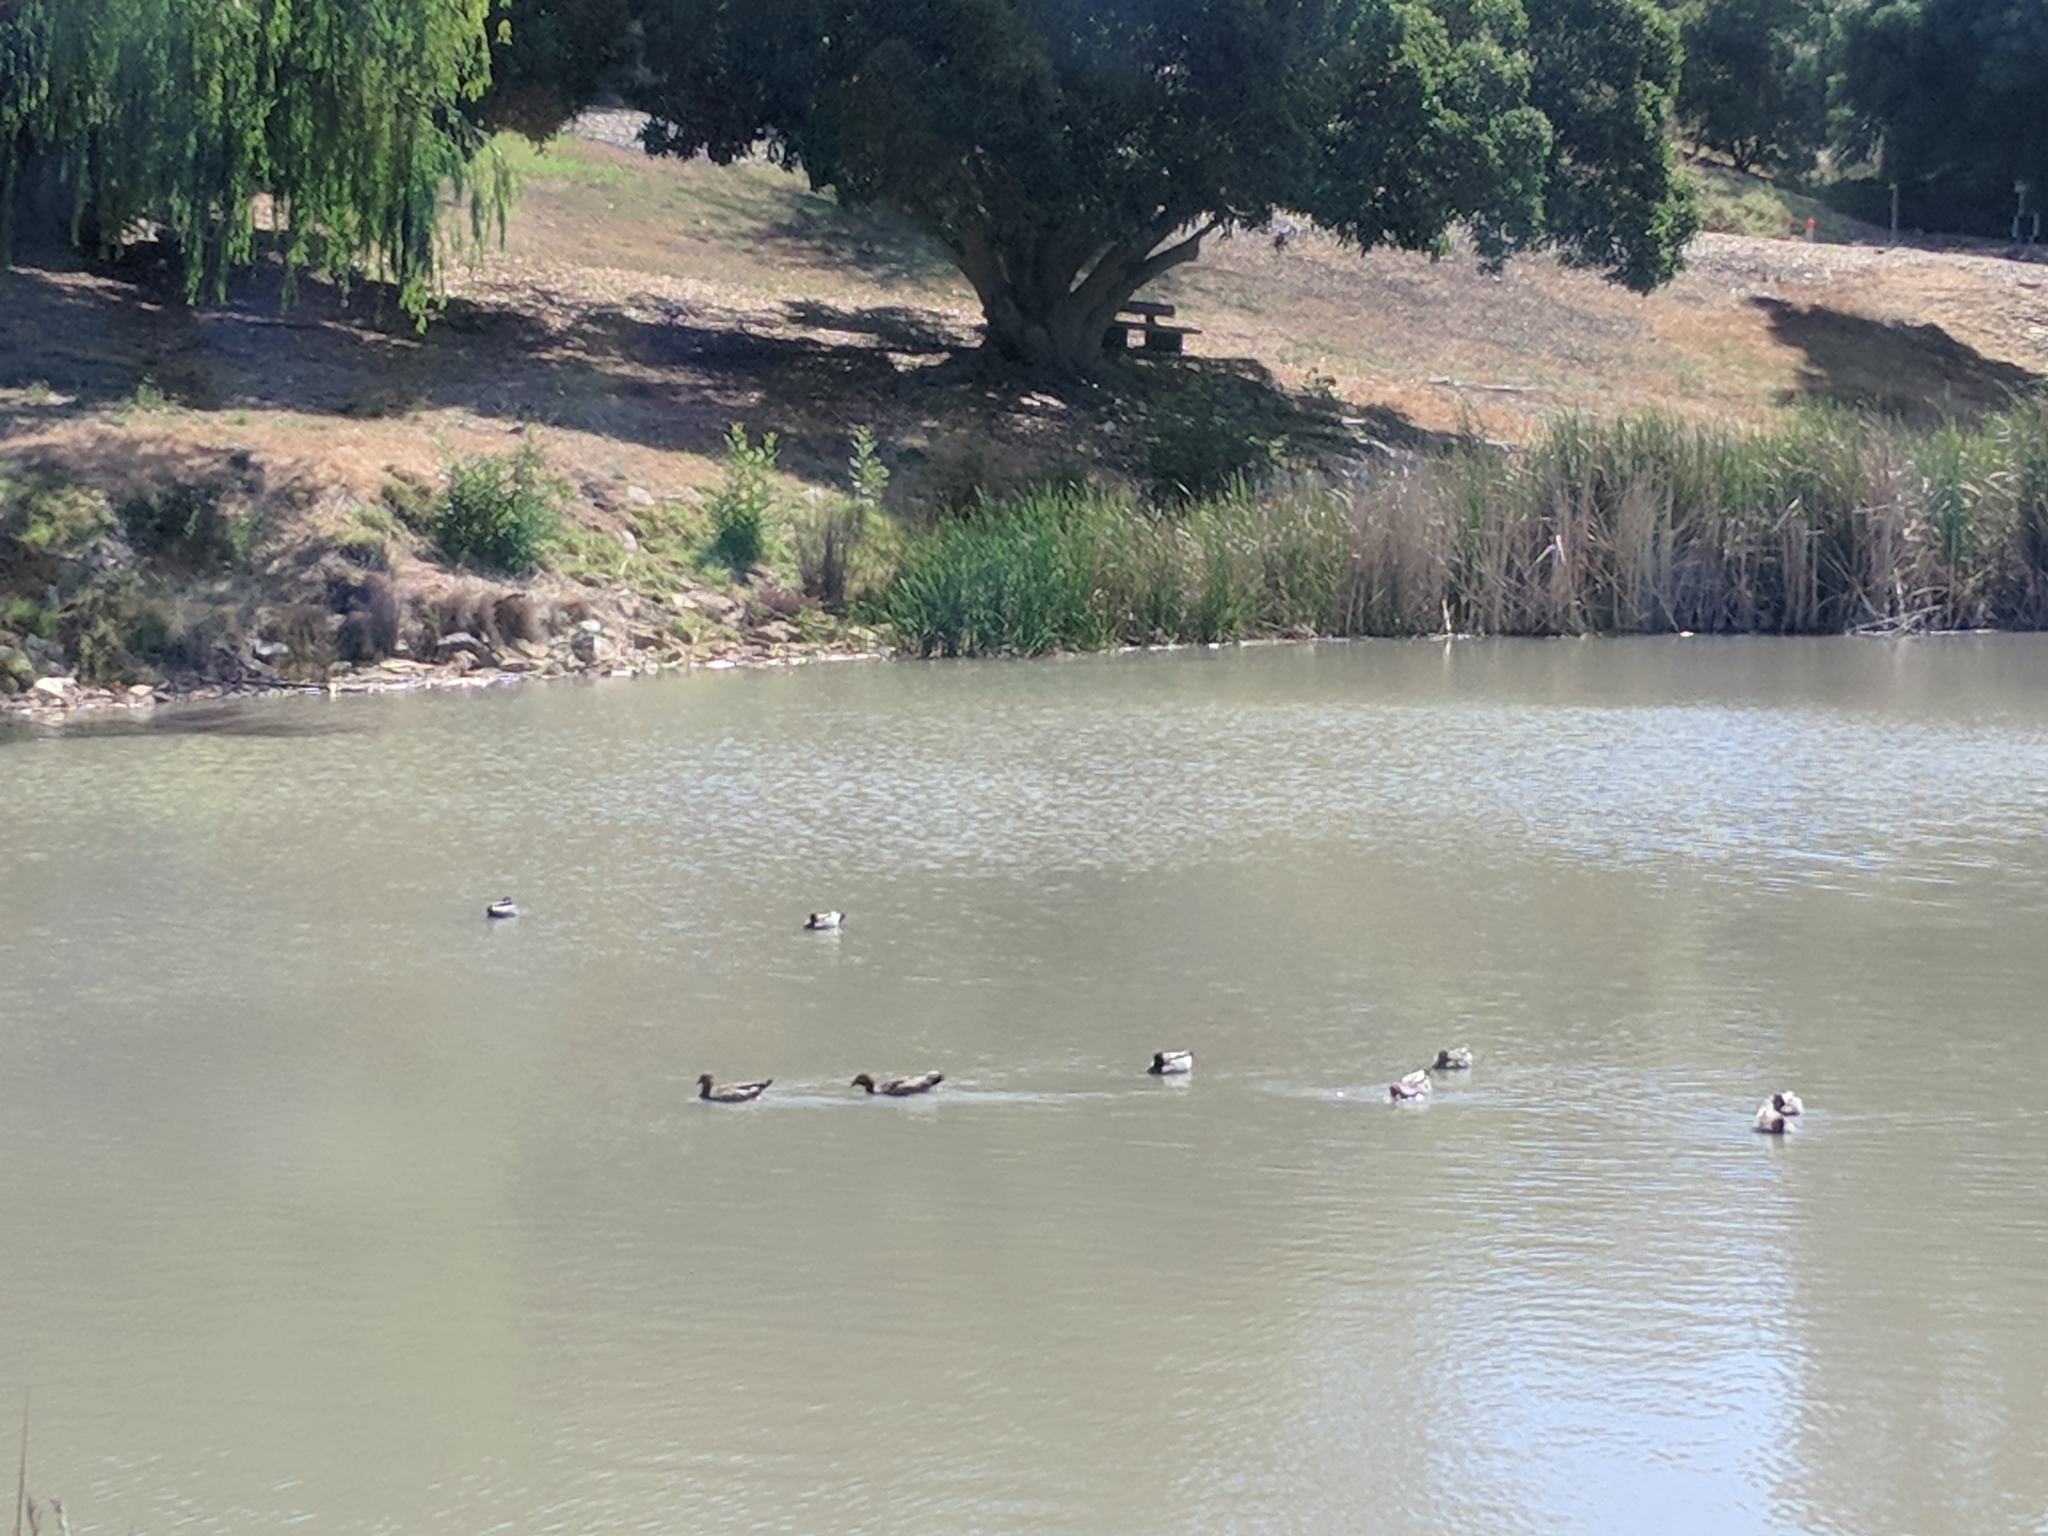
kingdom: Animalia
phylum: Chordata
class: Aves
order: Anseriformes
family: Anatidae
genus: Chenonetta
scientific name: Chenonetta jubata
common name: Maned duck
